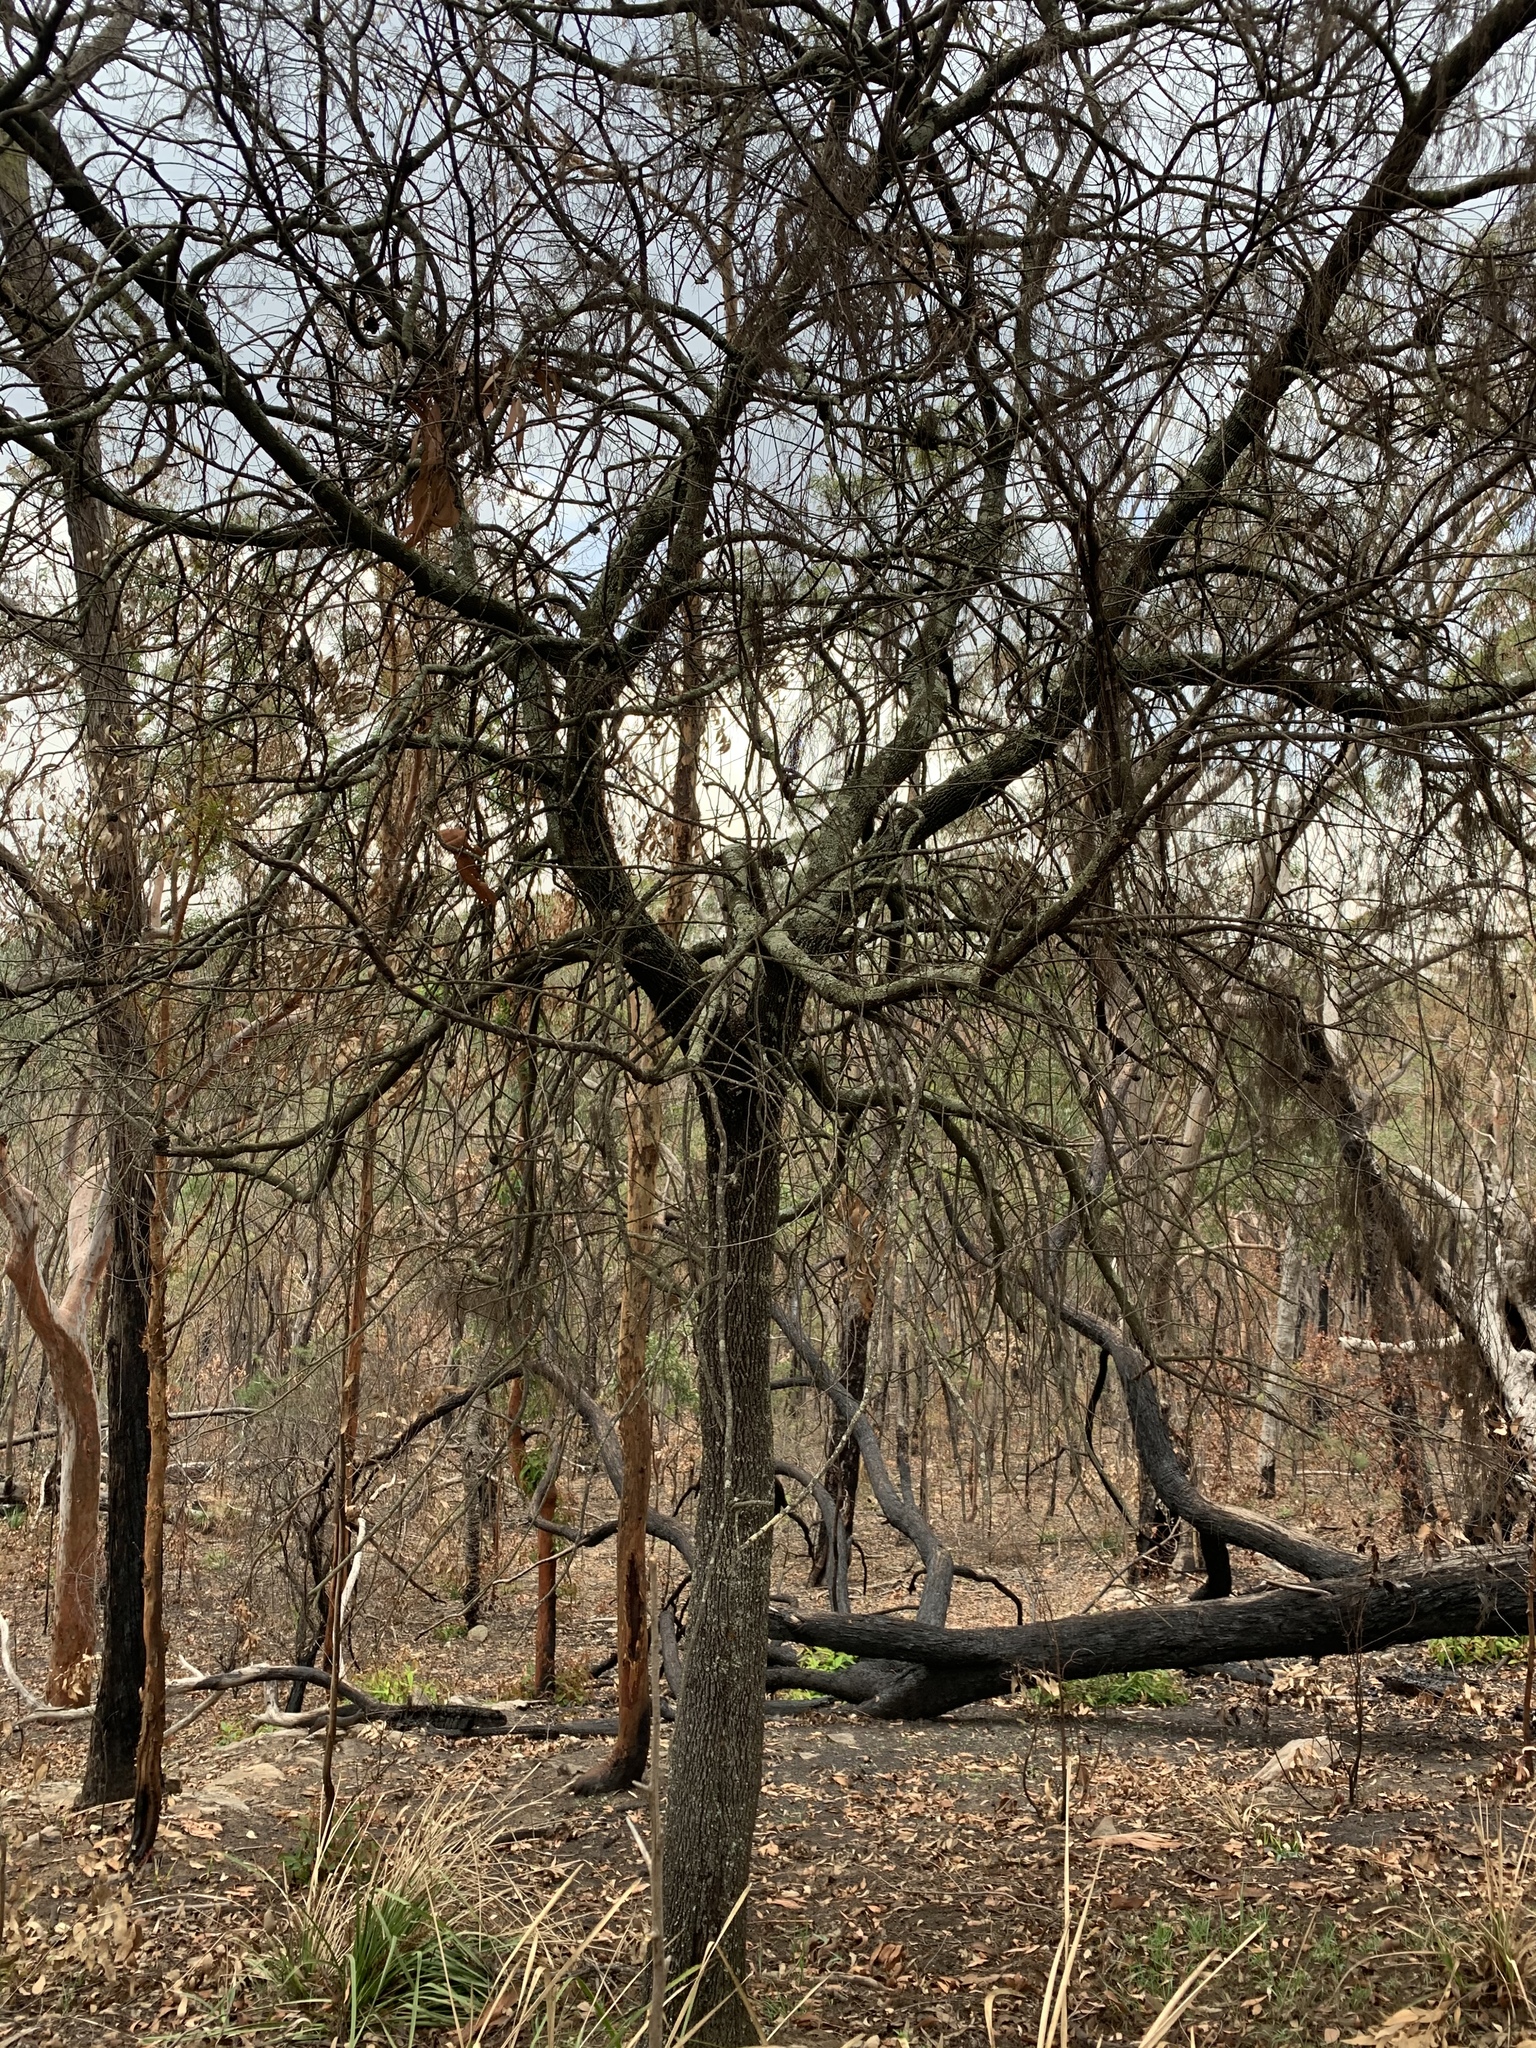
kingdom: Plantae
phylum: Tracheophyta
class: Magnoliopsida
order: Santalales
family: Santalaceae
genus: Exocarpos
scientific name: Exocarpos cupressiformis
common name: Cherry ballart
